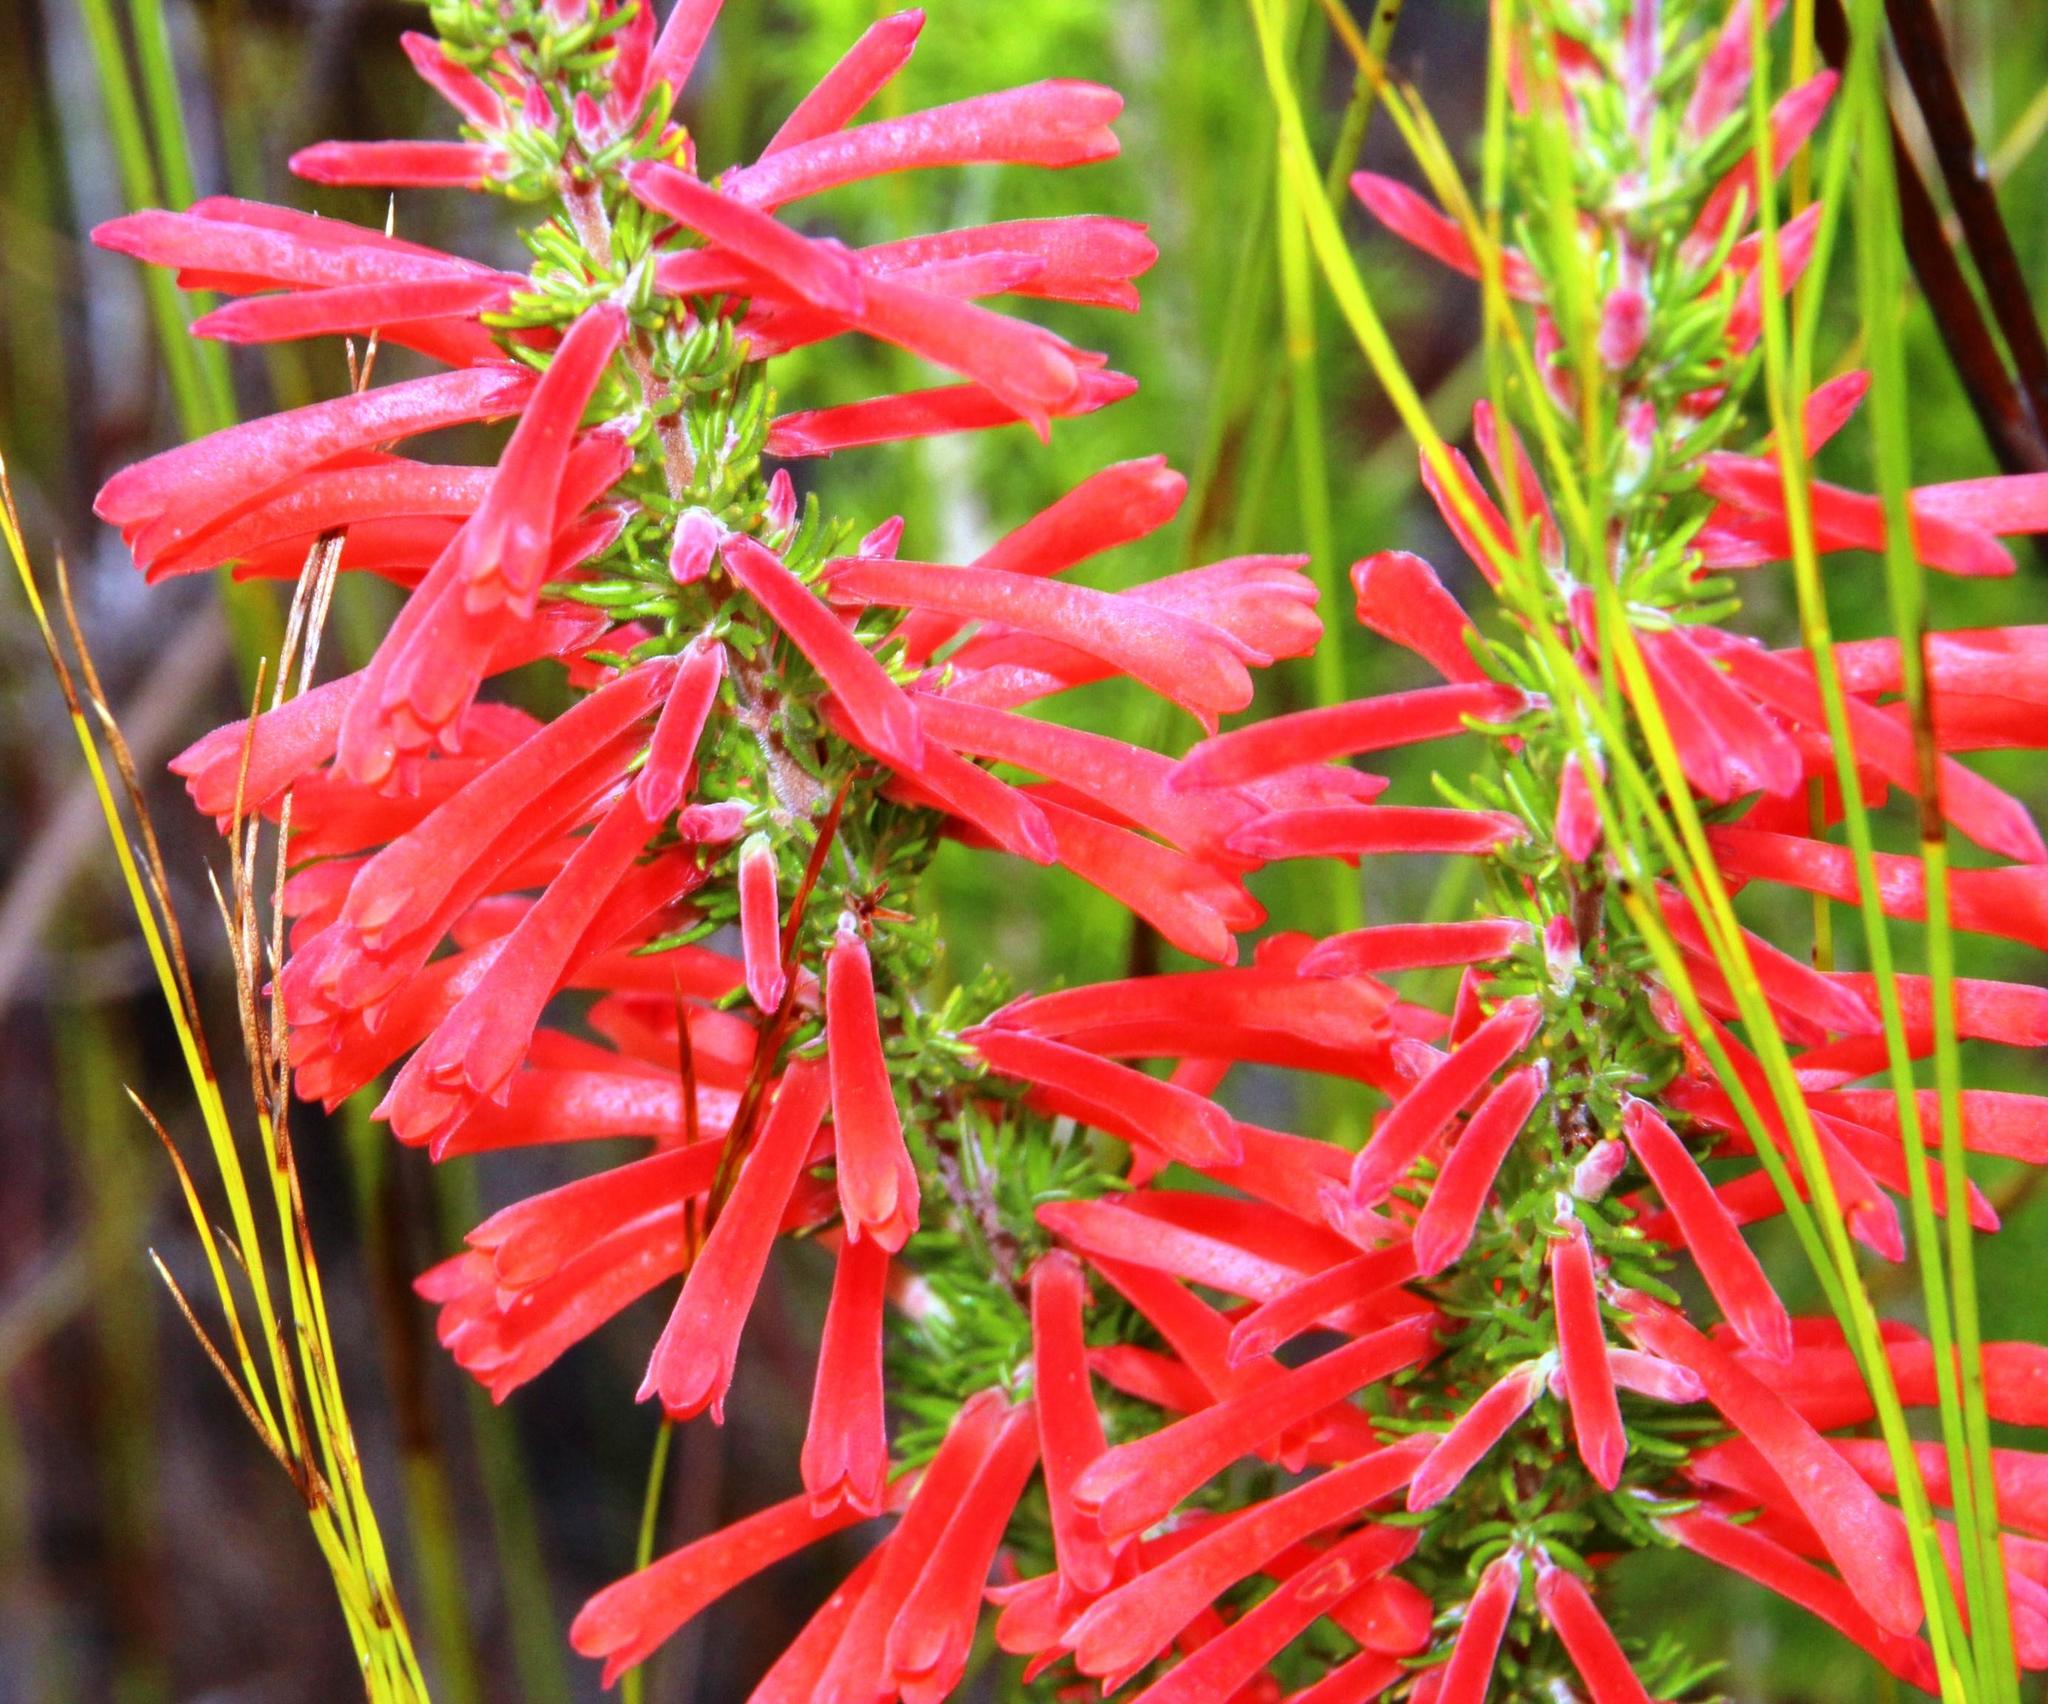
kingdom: Plantae
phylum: Tracheophyta
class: Magnoliopsida
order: Ericales
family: Ericaceae
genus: Erica
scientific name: Erica pillansii
